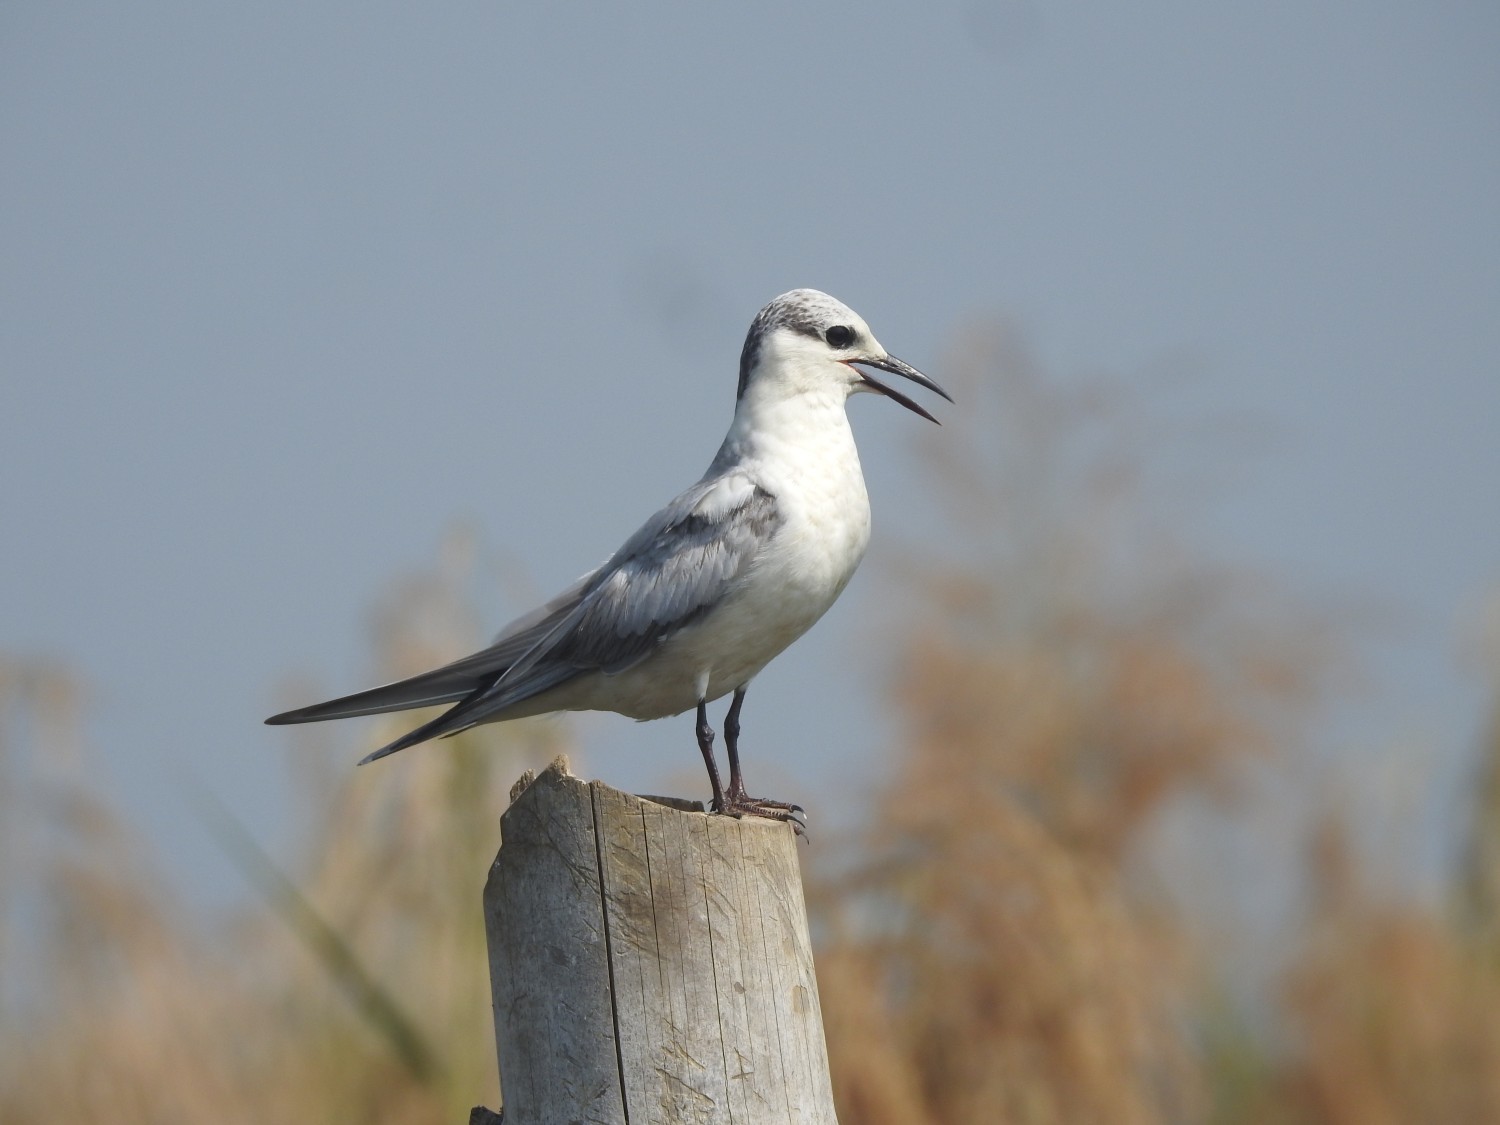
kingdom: Animalia
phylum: Chordata
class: Aves
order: Charadriiformes
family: Laridae
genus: Chlidonias
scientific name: Chlidonias hybrida
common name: Whiskered tern
